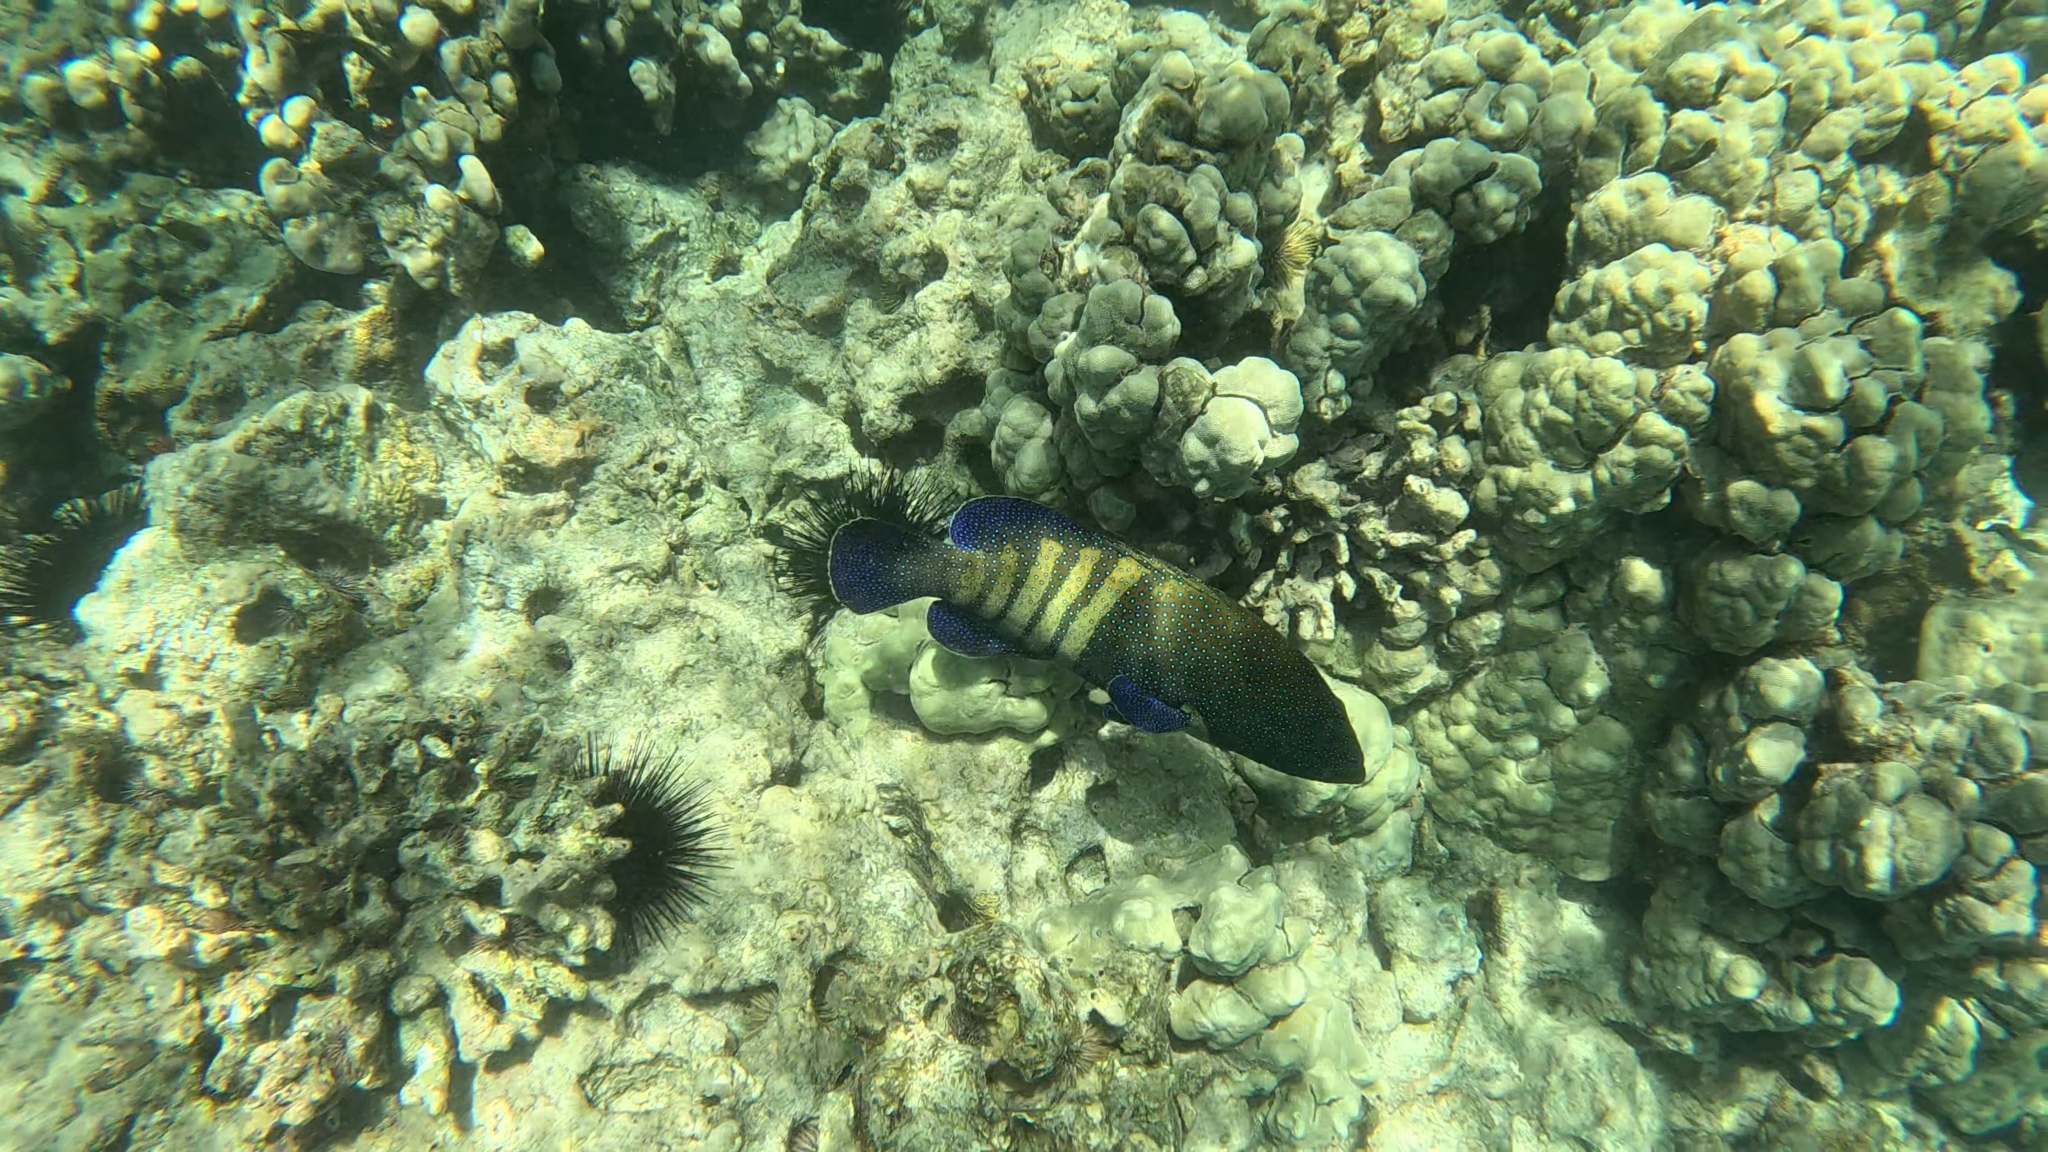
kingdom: Animalia
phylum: Chordata
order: Perciformes
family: Serranidae
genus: Cephalopholis
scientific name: Cephalopholis argus
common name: Peacock grouper
